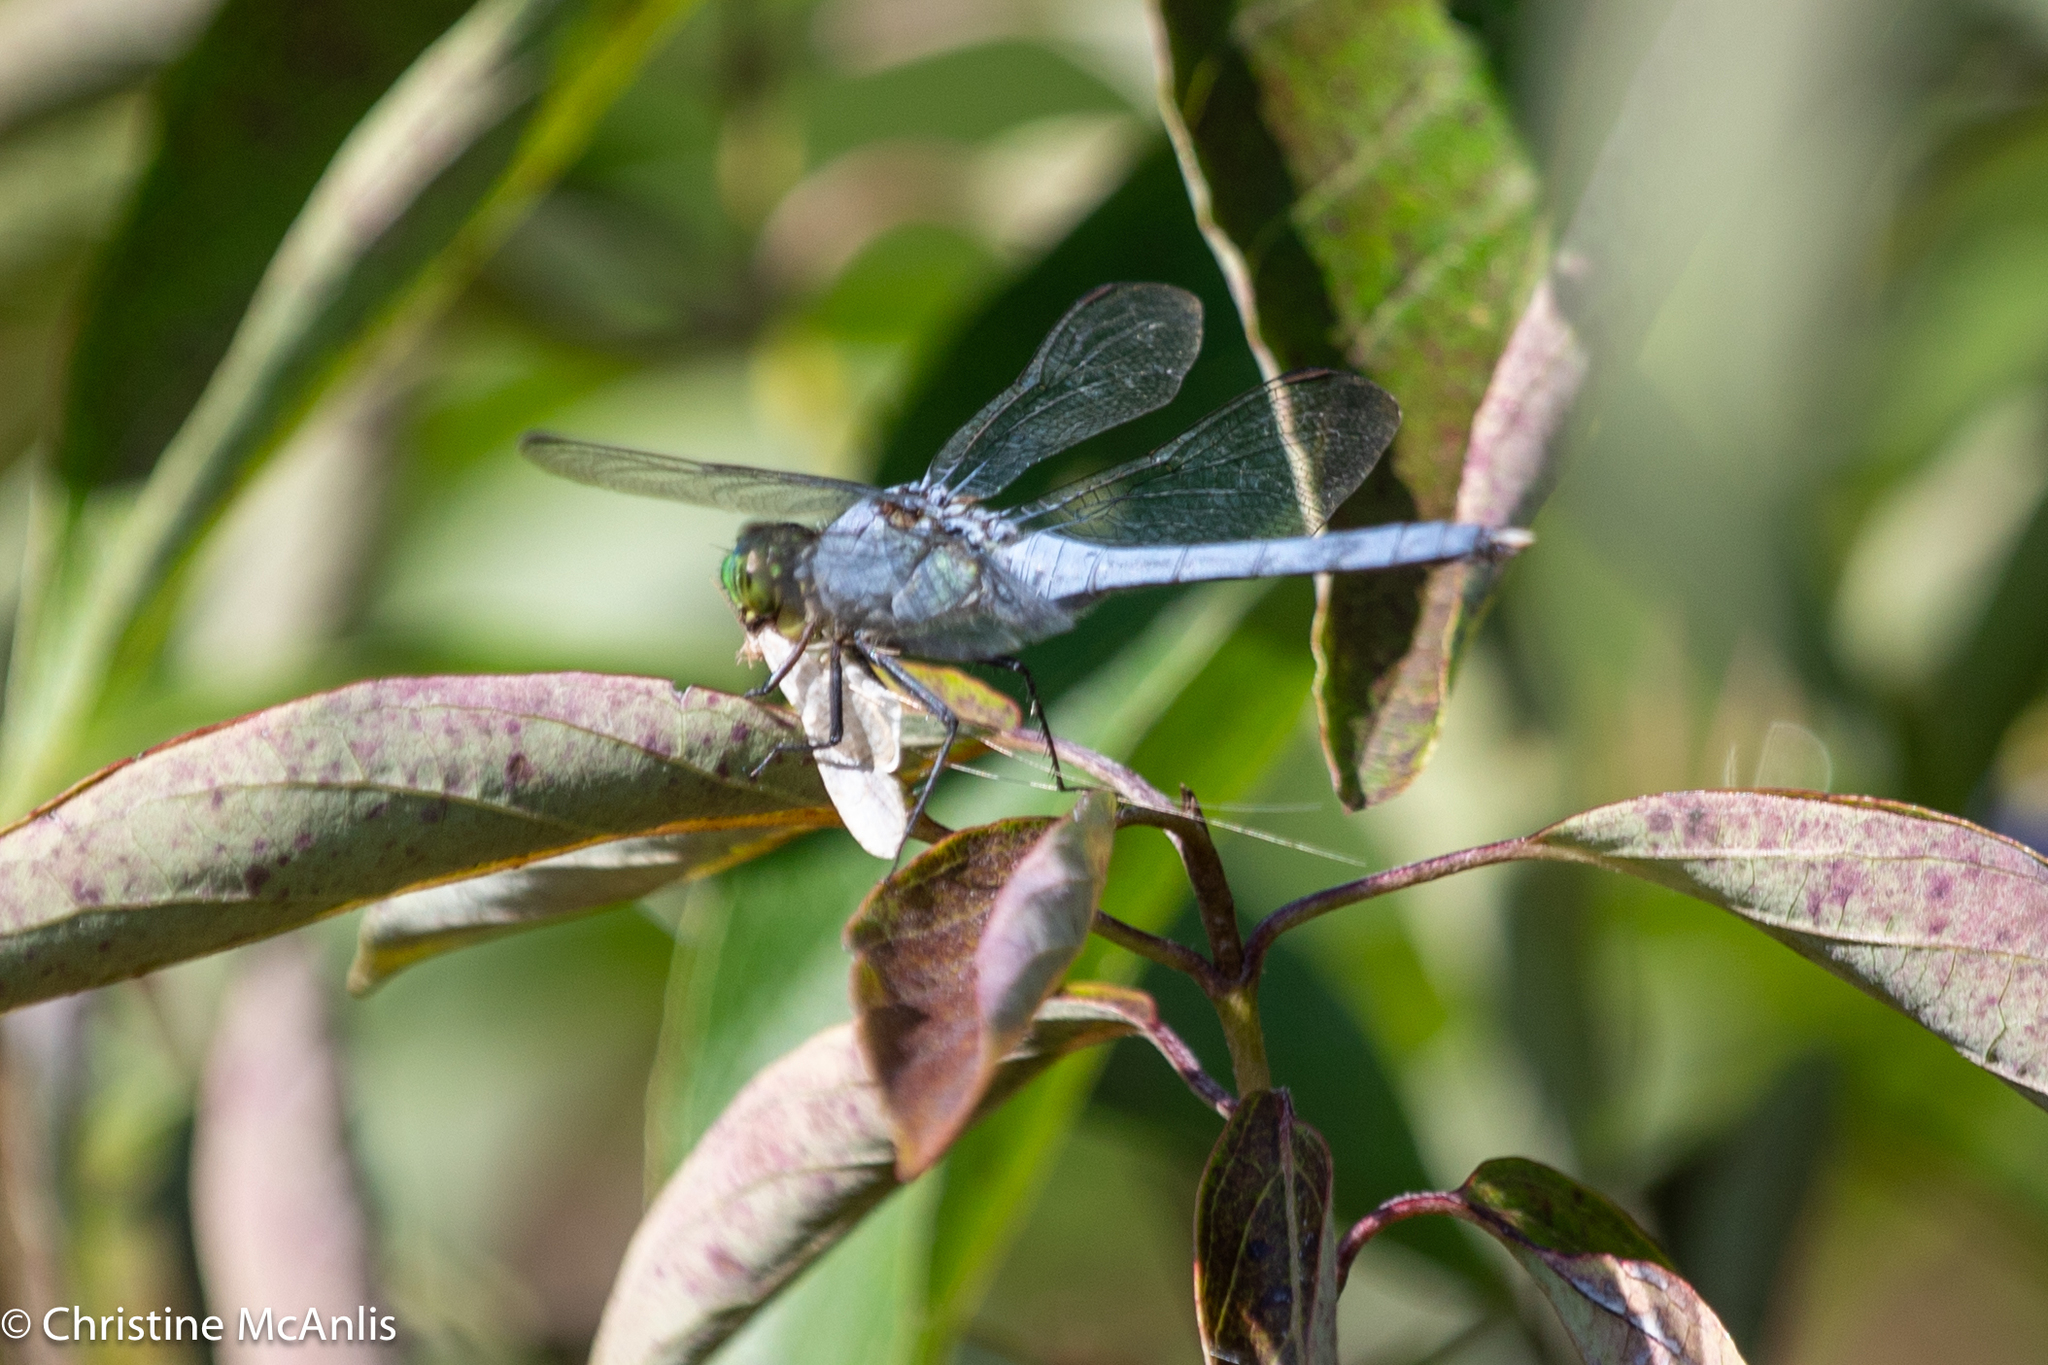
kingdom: Animalia
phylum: Arthropoda
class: Insecta
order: Odonata
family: Libellulidae
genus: Erythemis
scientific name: Erythemis simplicicollis
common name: Eastern pondhawk
